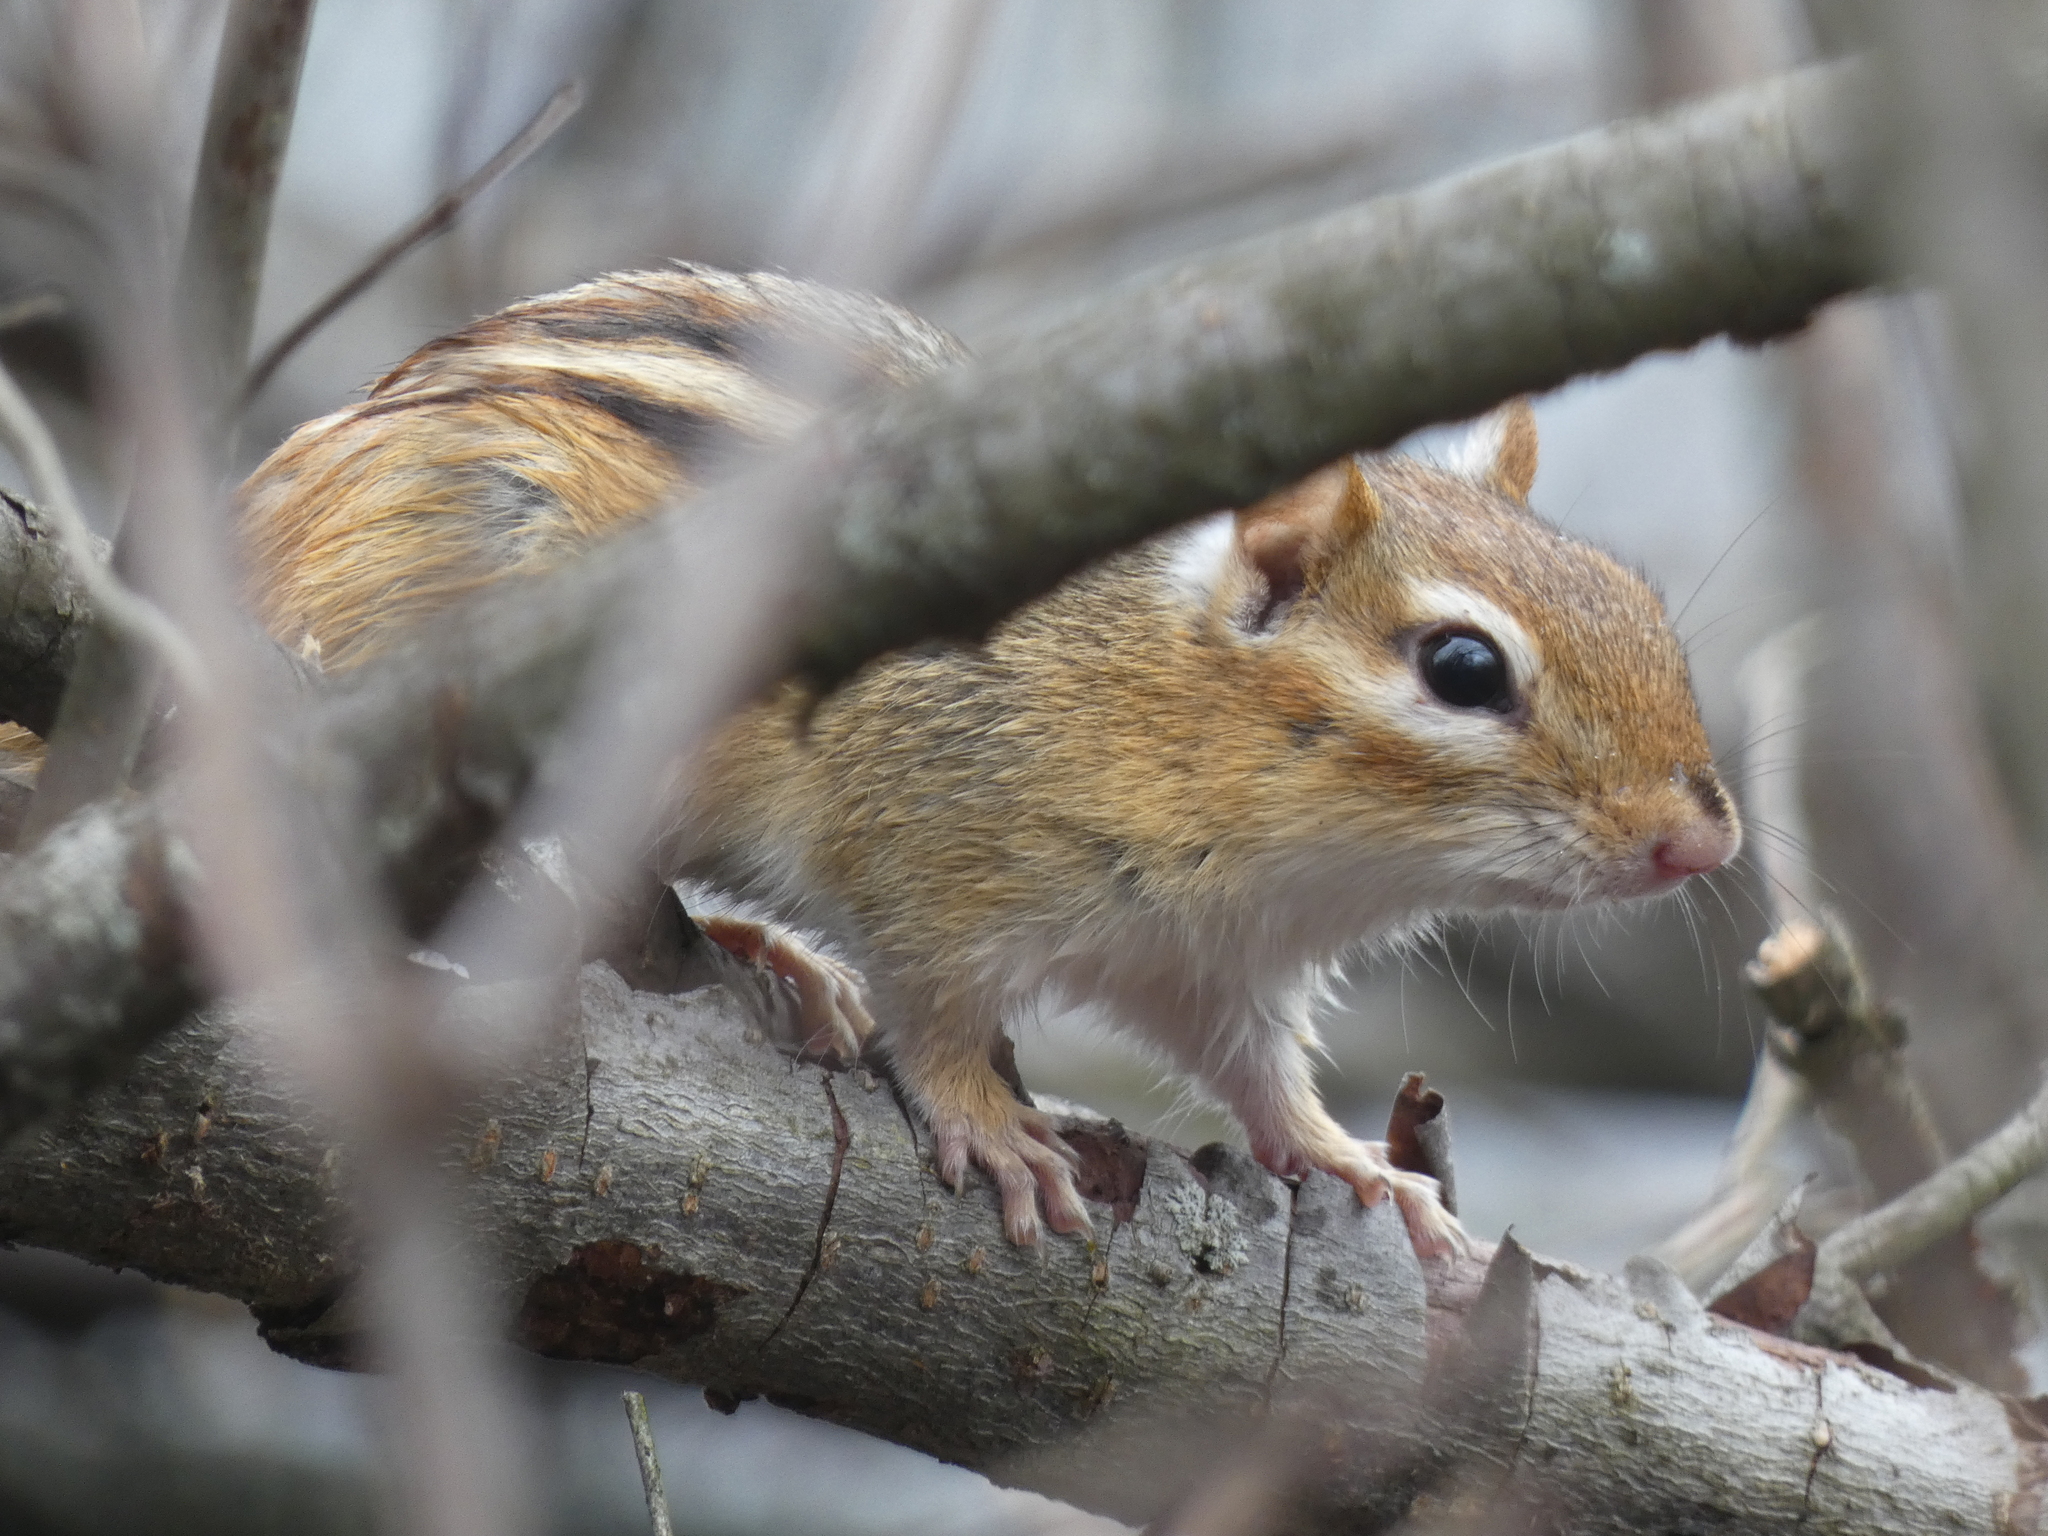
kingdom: Animalia
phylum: Chordata
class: Mammalia
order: Rodentia
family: Sciuridae
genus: Tamias
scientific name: Tamias striatus
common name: Eastern chipmunk
